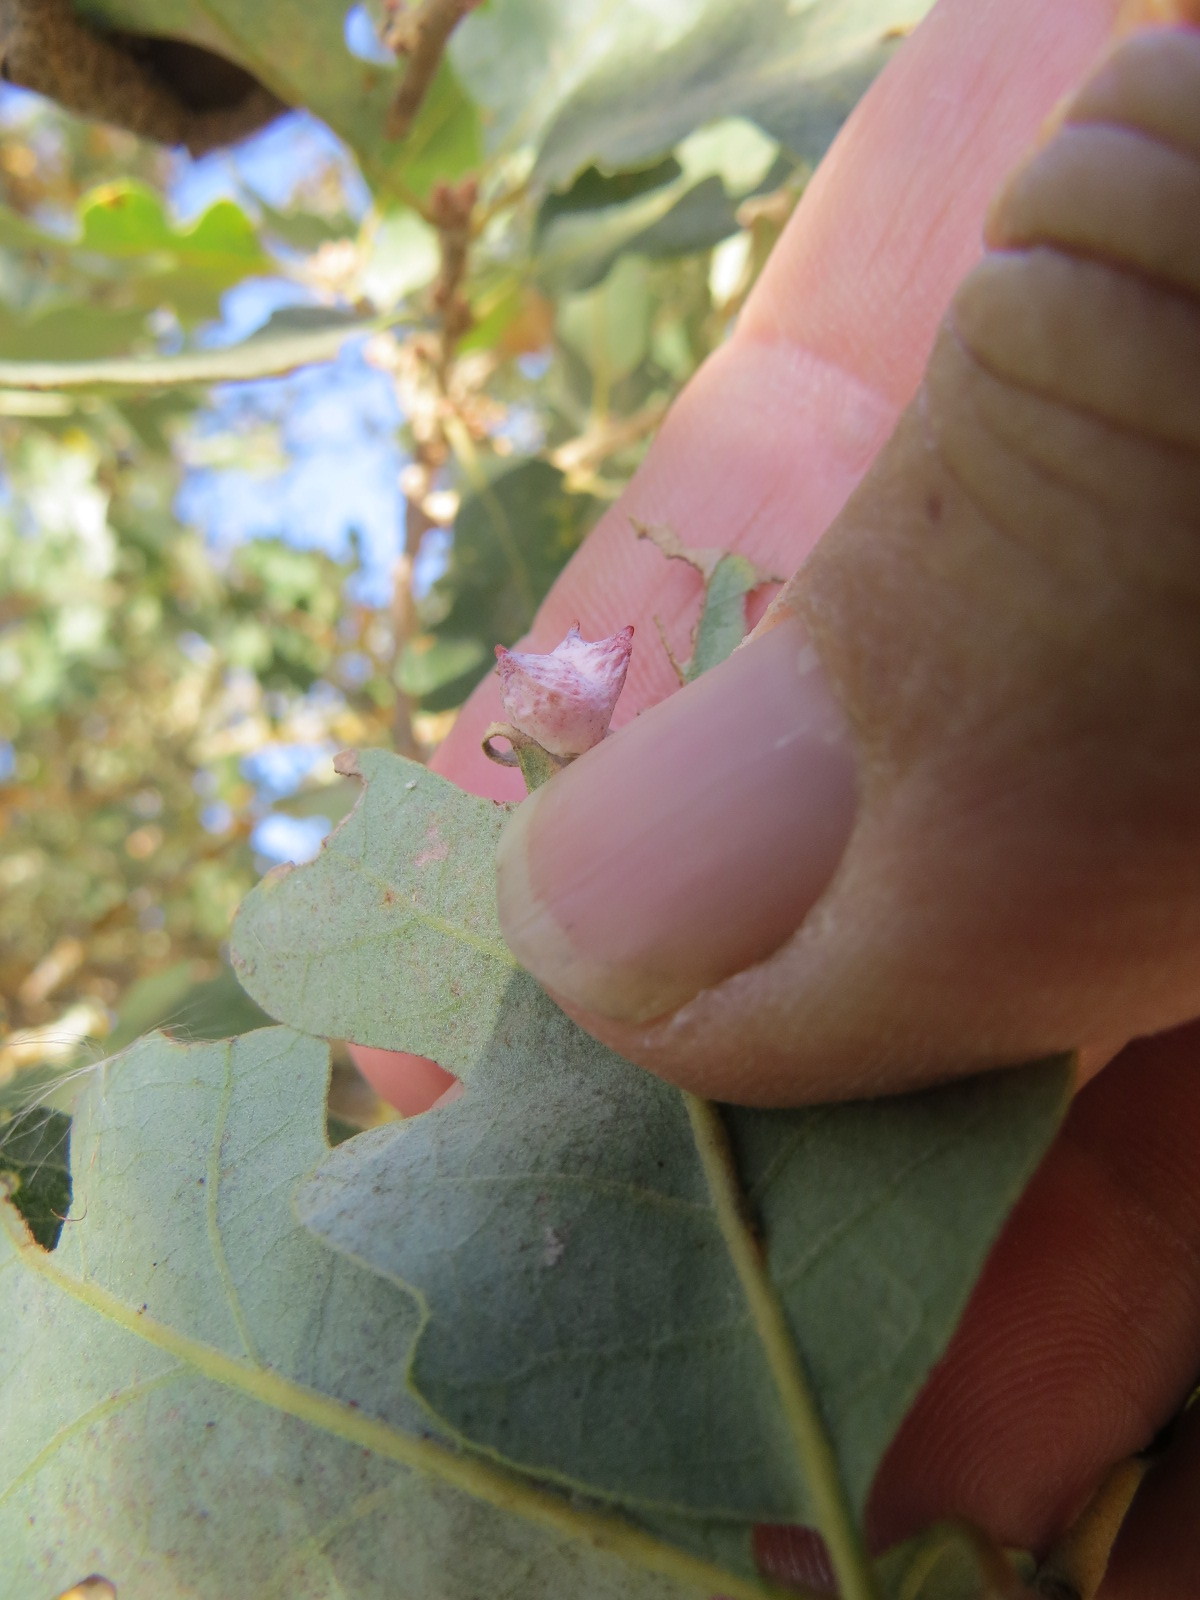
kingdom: Animalia
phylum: Arthropoda
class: Insecta
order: Hymenoptera
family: Cynipidae
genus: Cynips
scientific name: Cynips douglasi
